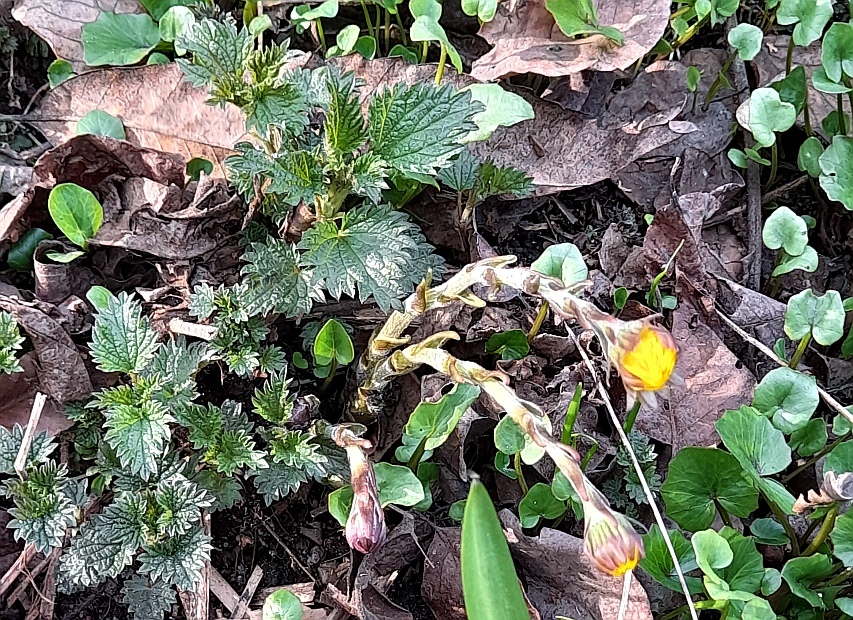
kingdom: Plantae
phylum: Tracheophyta
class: Magnoliopsida
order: Asterales
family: Asteraceae
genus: Tussilago
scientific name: Tussilago farfara
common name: Coltsfoot
